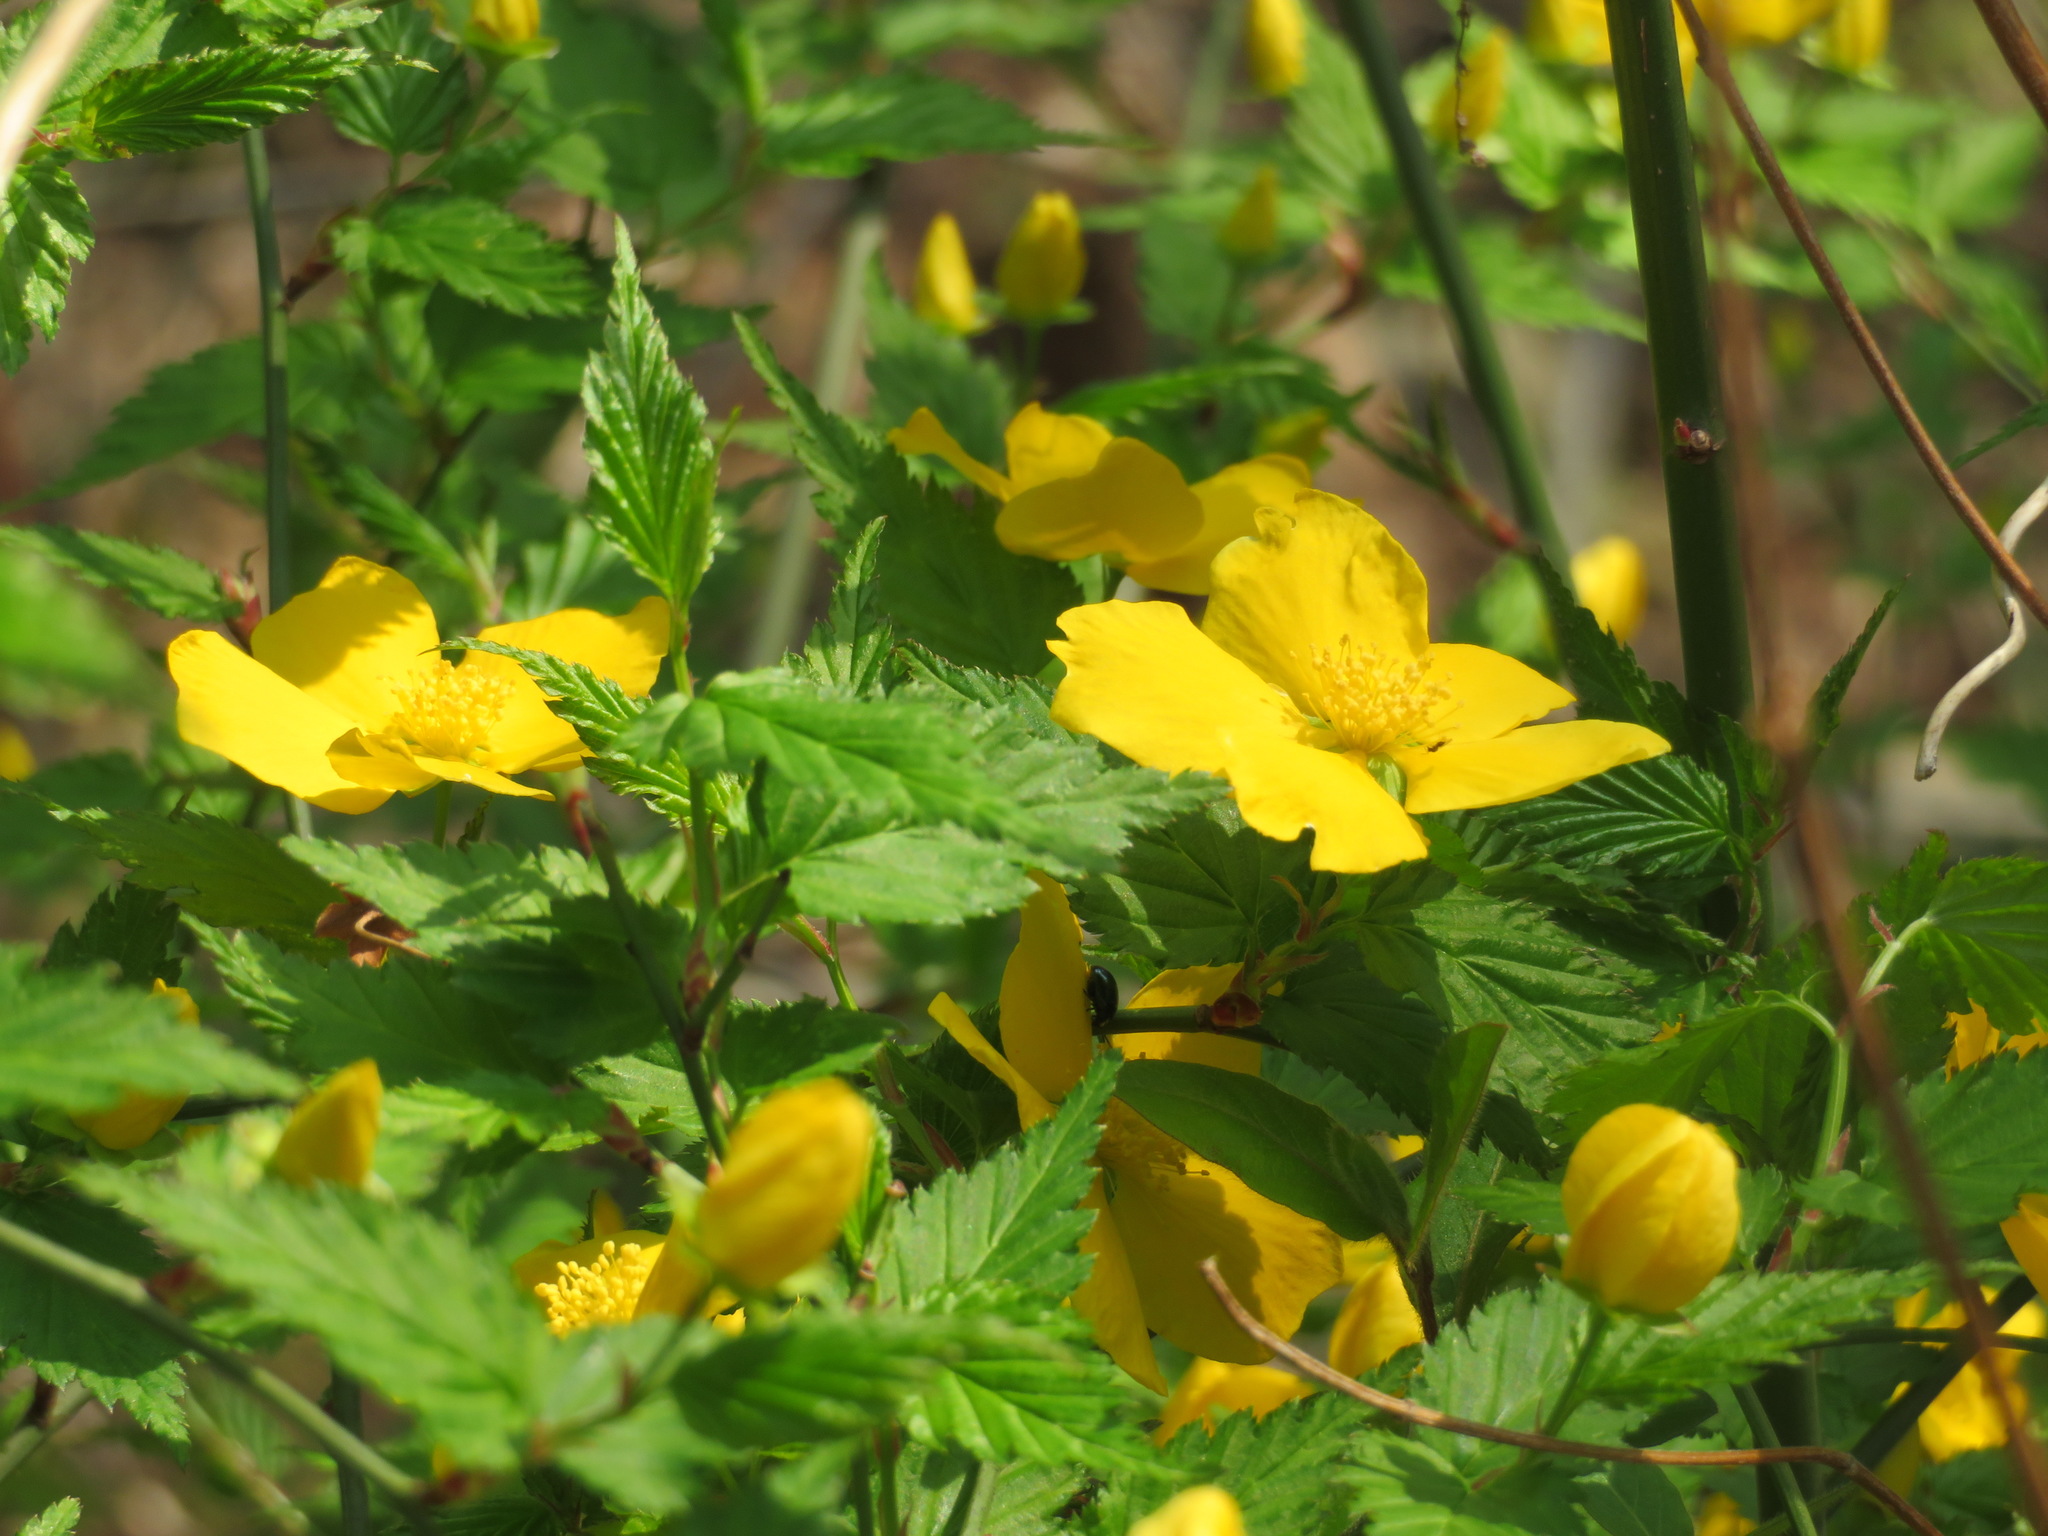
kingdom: Plantae
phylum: Tracheophyta
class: Magnoliopsida
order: Rosales
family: Rosaceae
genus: Kerria
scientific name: Kerria japonica
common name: Japanese kerria
